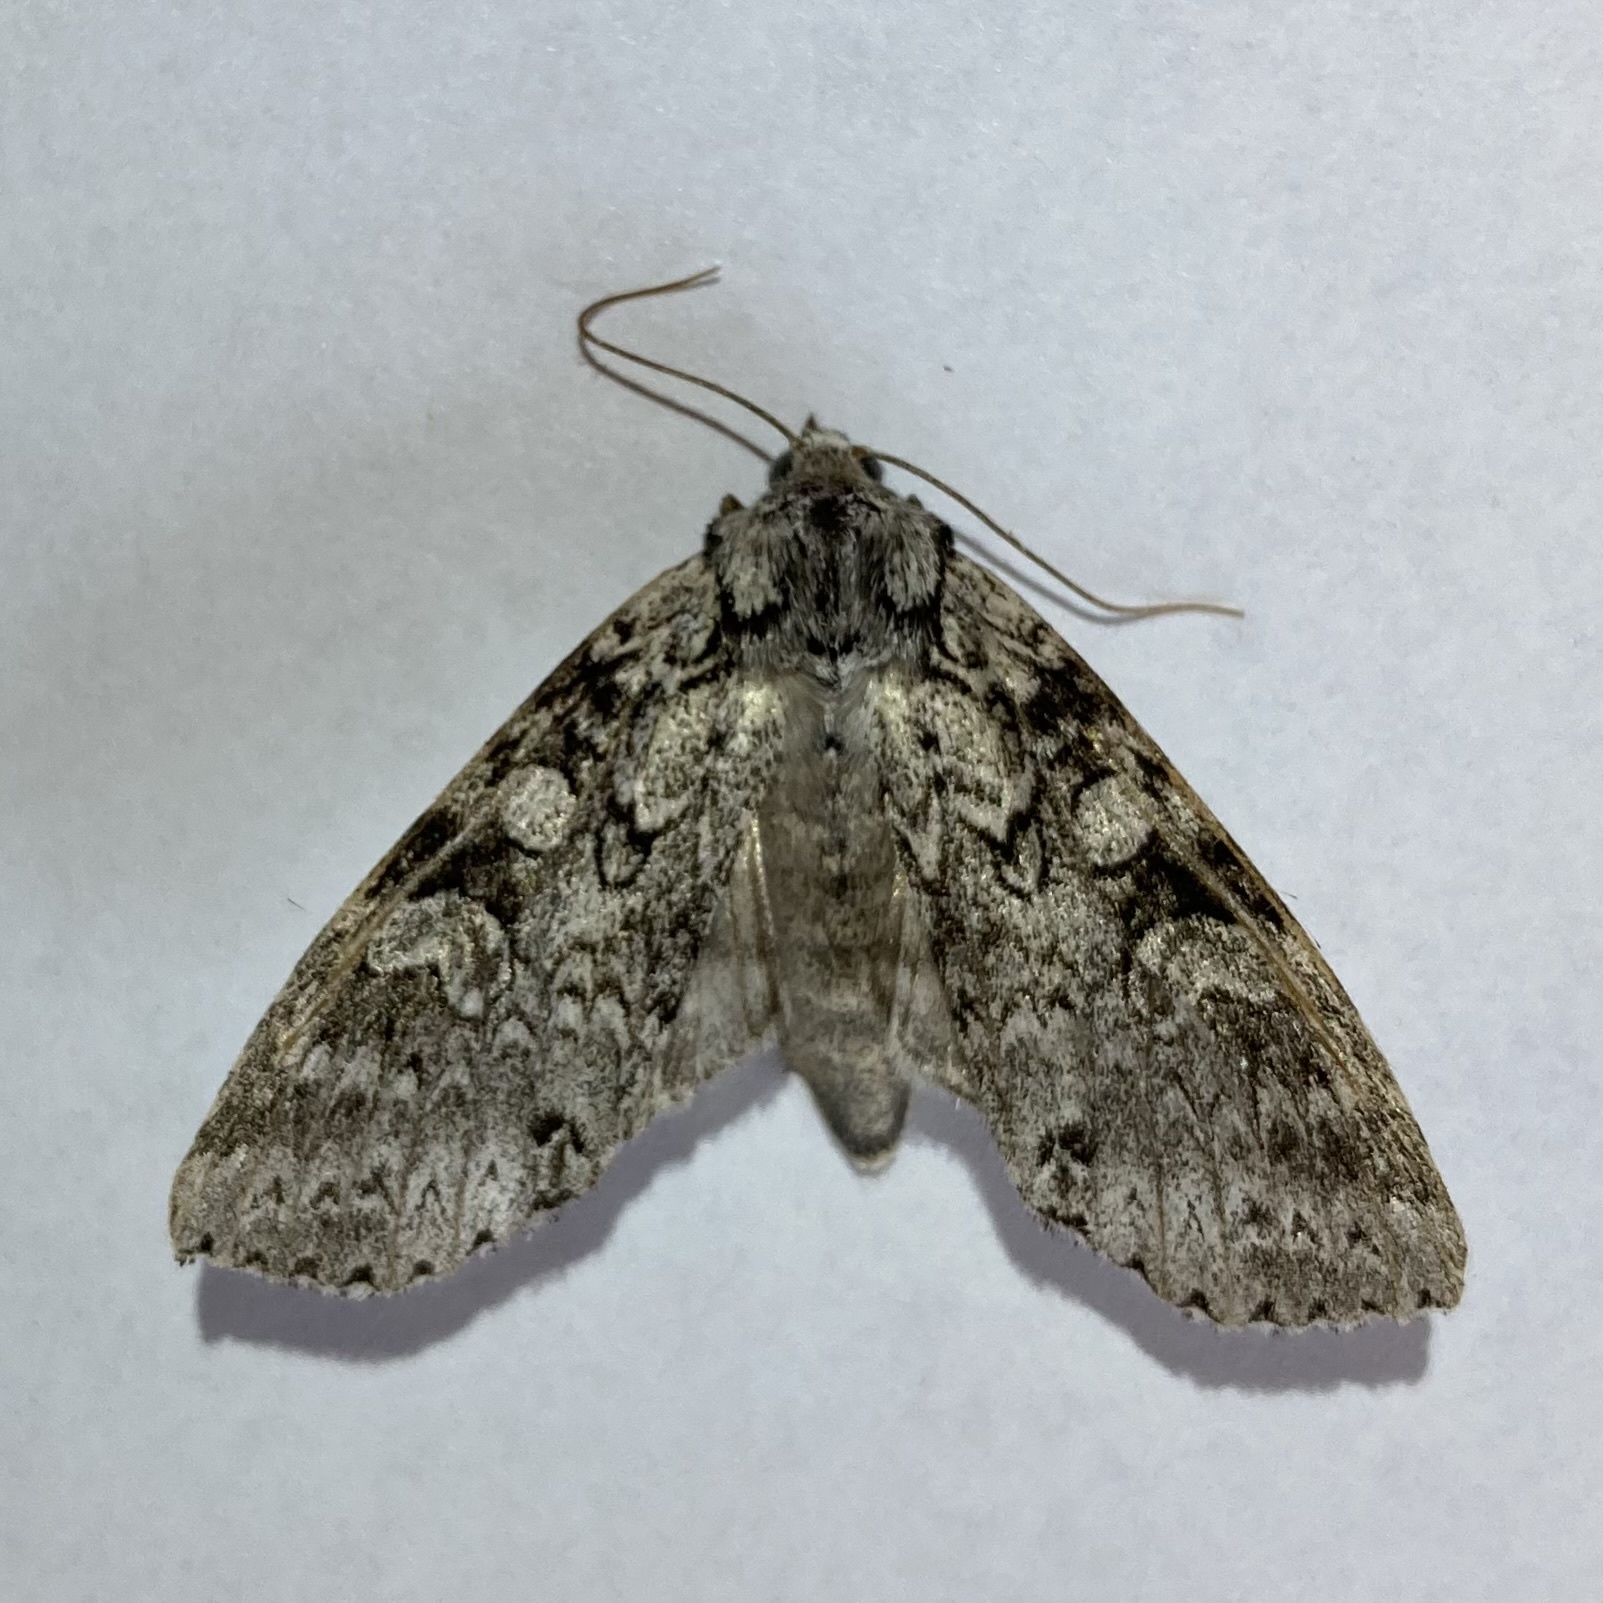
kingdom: Animalia
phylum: Arthropoda
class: Insecta
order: Lepidoptera
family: Noctuidae
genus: Polia
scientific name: Polia nimbosa
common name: Stormy arches
